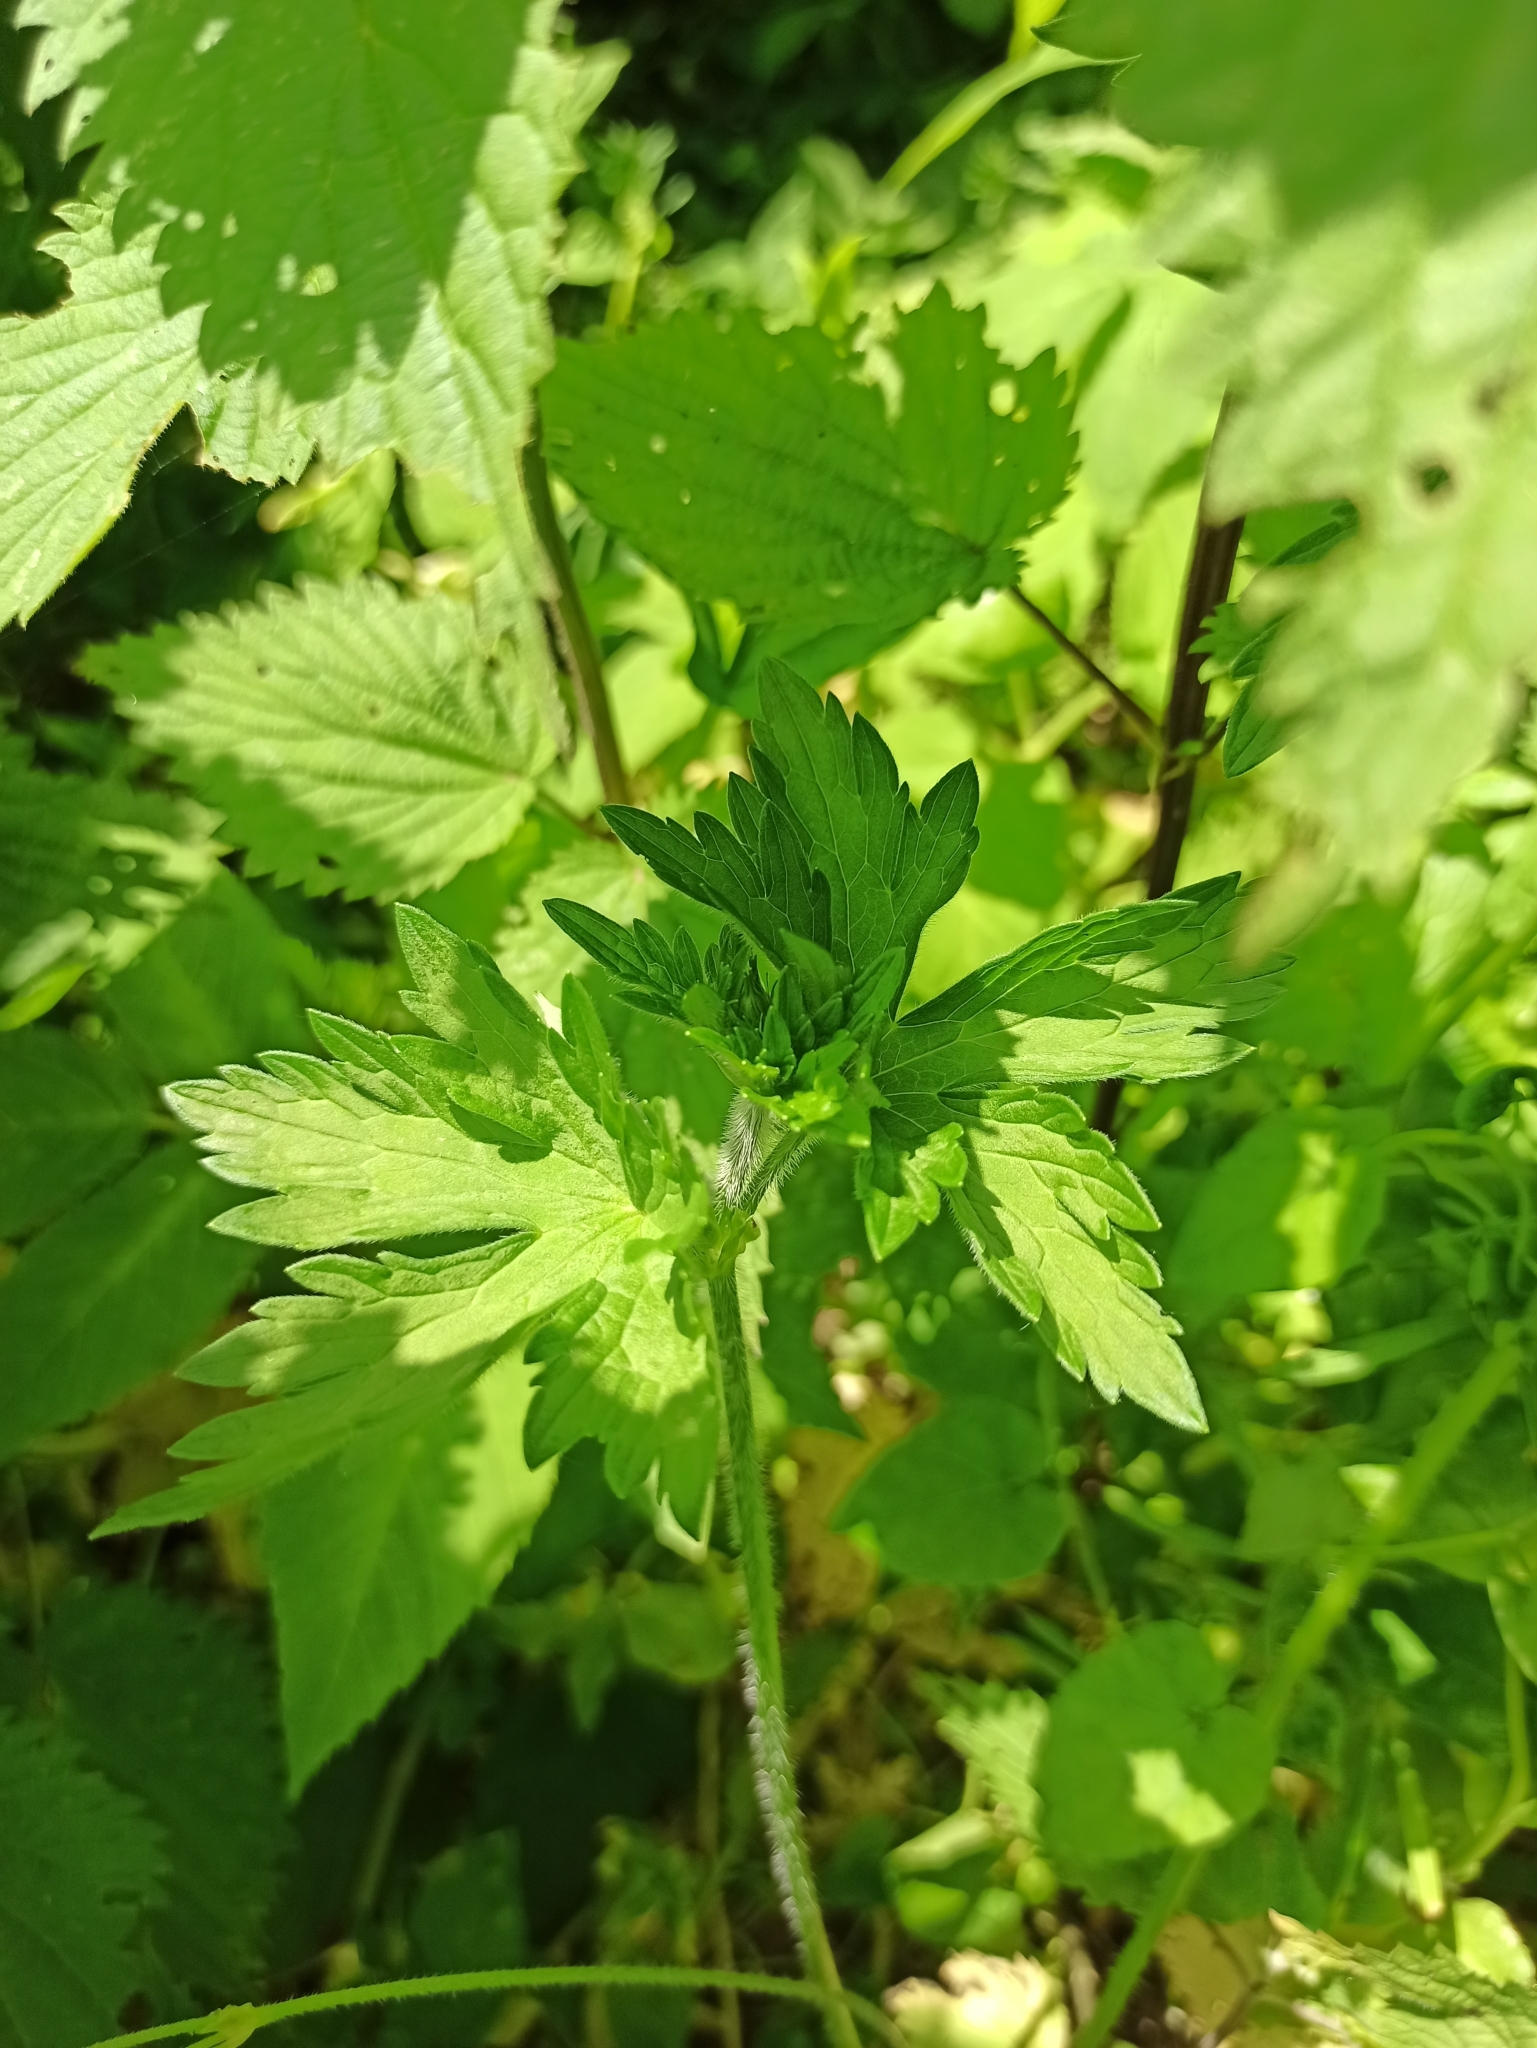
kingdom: Plantae
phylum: Tracheophyta
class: Magnoliopsida
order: Geraniales
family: Geraniaceae
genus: Geranium
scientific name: Geranium palustre
